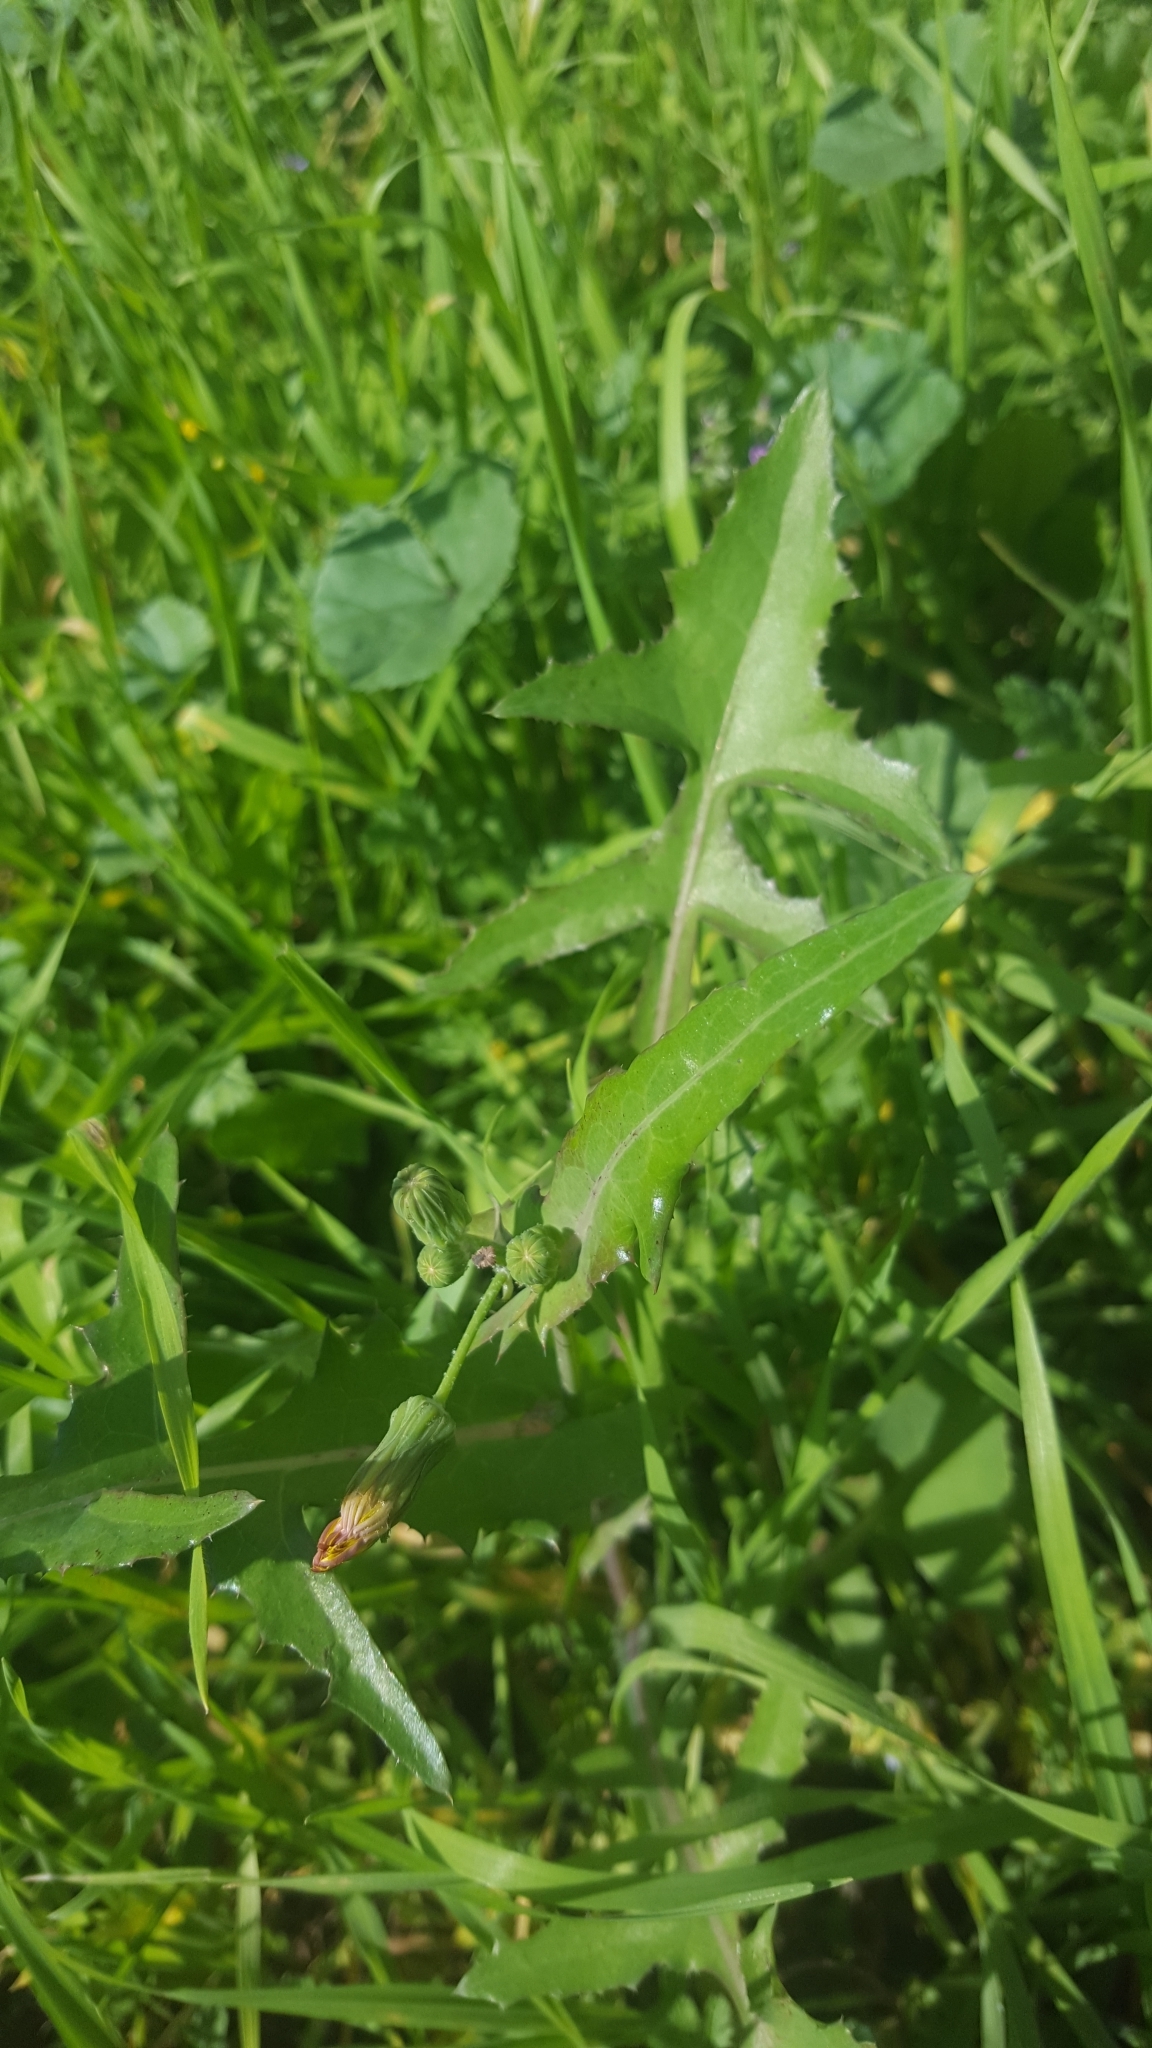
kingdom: Plantae
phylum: Tracheophyta
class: Magnoliopsida
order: Asterales
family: Asteraceae
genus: Sonchus
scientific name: Sonchus oleraceus
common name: Common sowthistle
